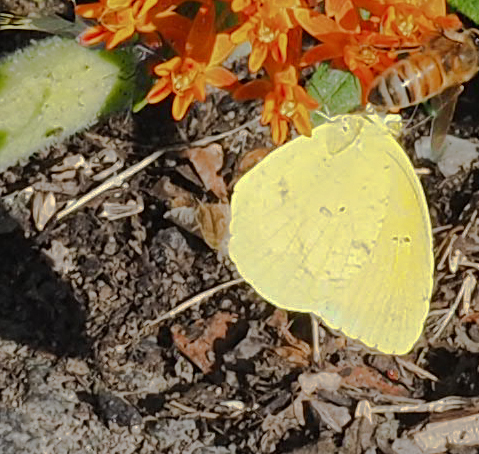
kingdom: Animalia
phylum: Arthropoda
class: Insecta
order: Lepidoptera
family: Pieridae
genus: Abaeis
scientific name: Abaeis nicippe
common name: Sleepy orange
